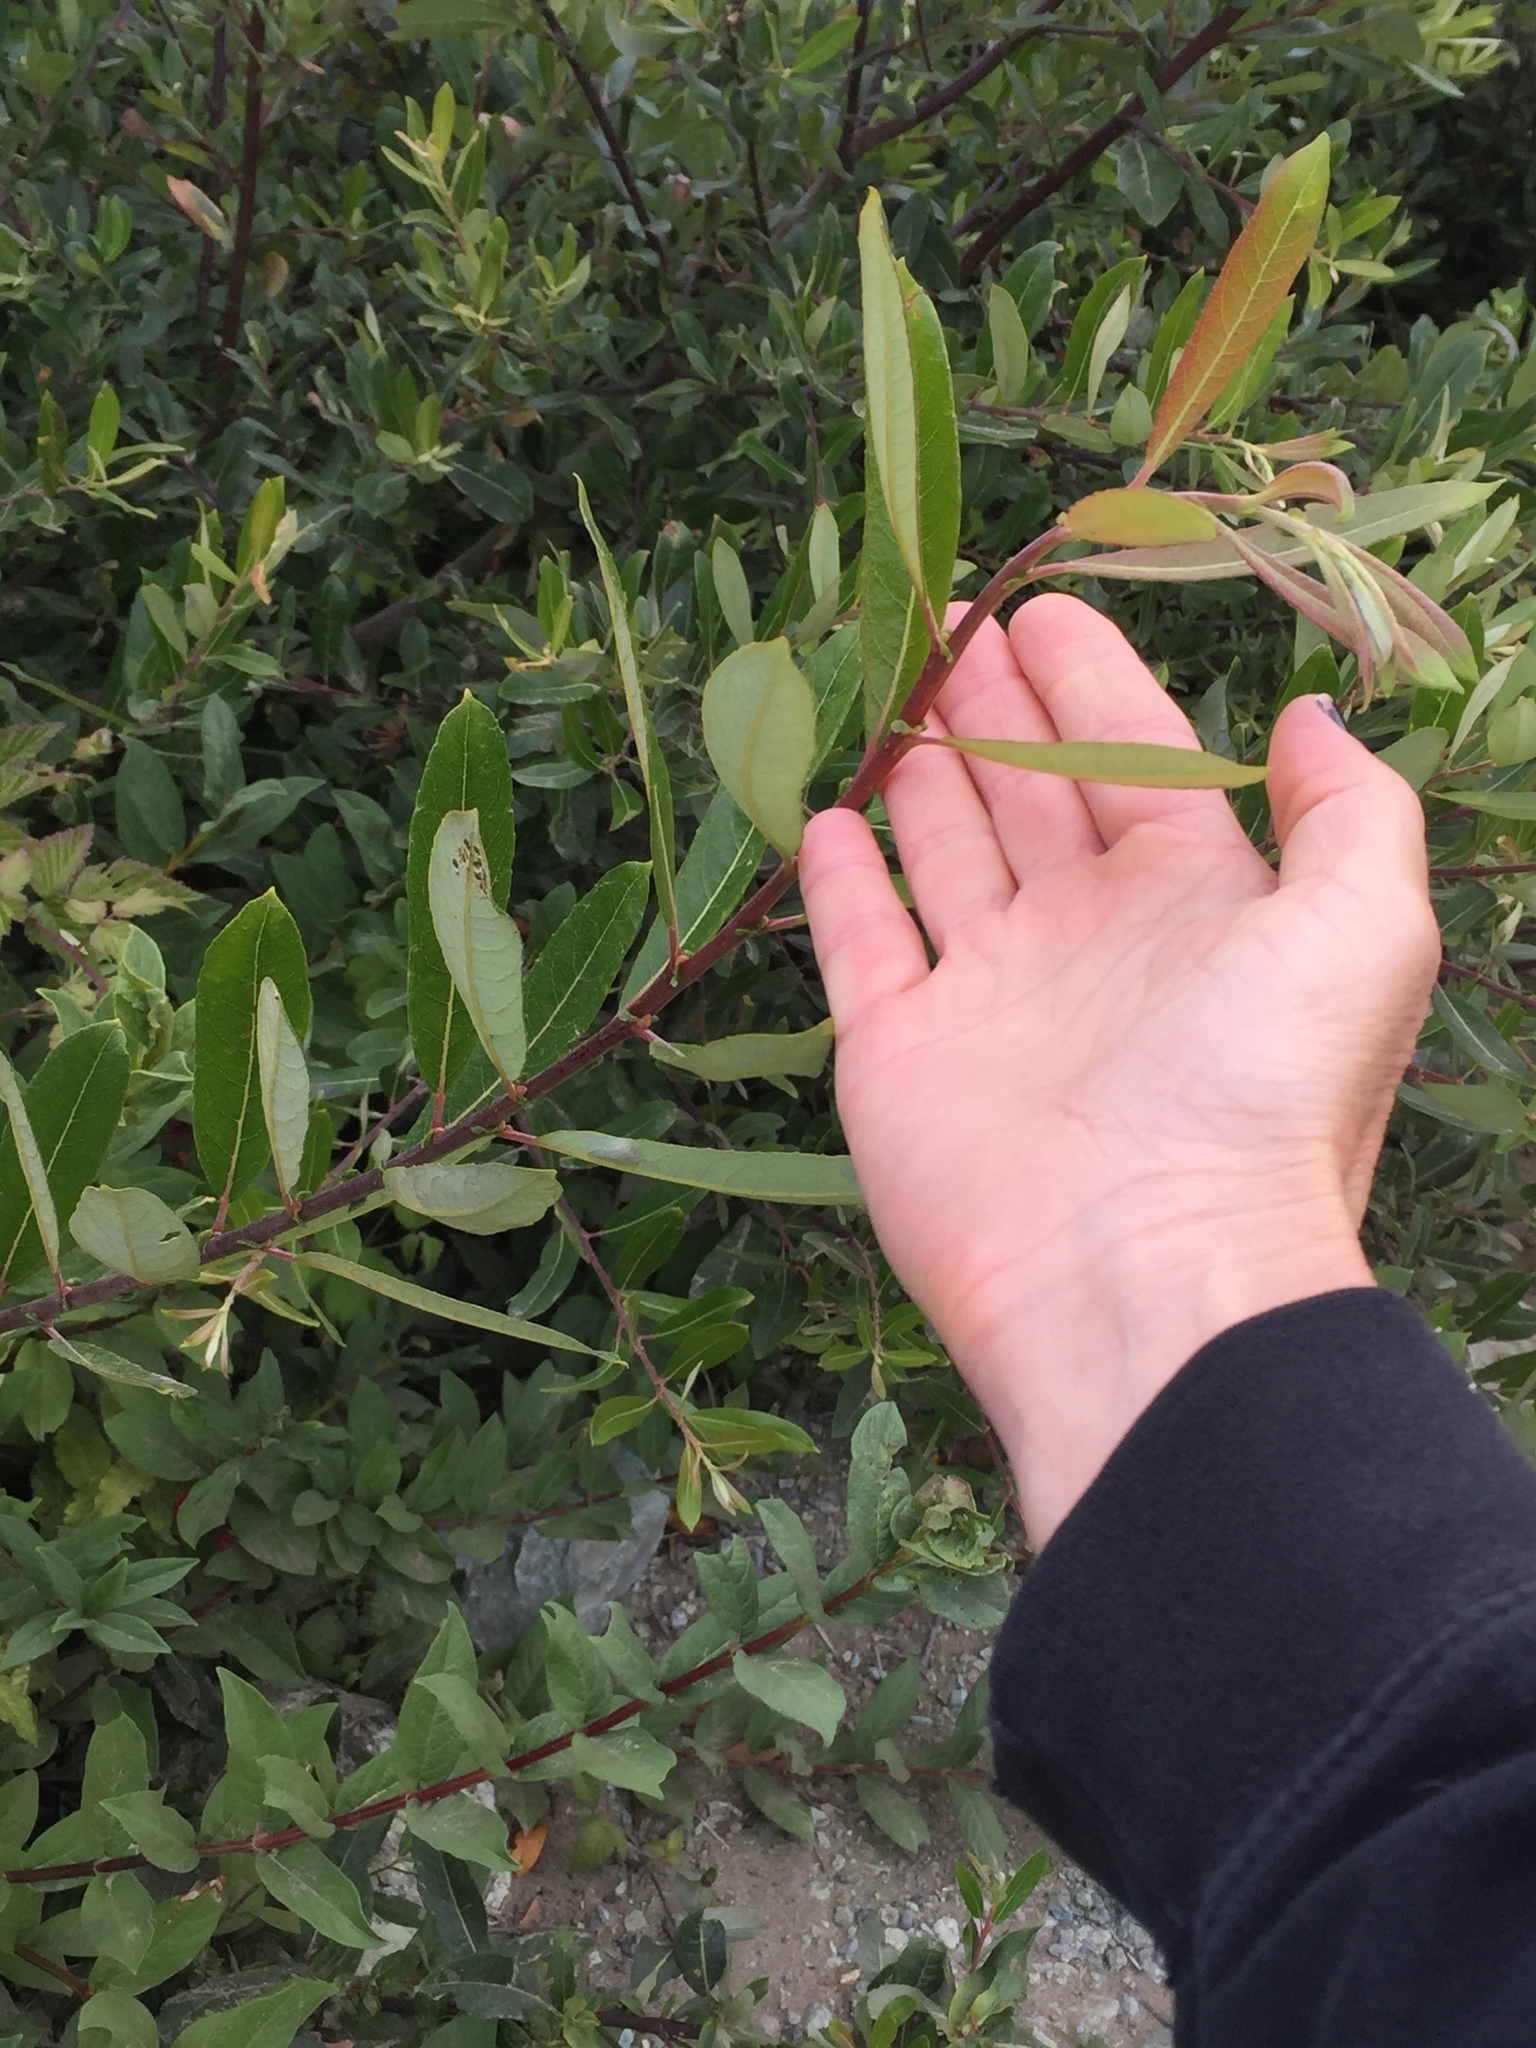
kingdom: Plantae
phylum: Tracheophyta
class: Magnoliopsida
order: Dipsacales
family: Caprifoliaceae
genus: Lonicera
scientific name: Lonicera involucrata
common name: Californian honeysuckle
